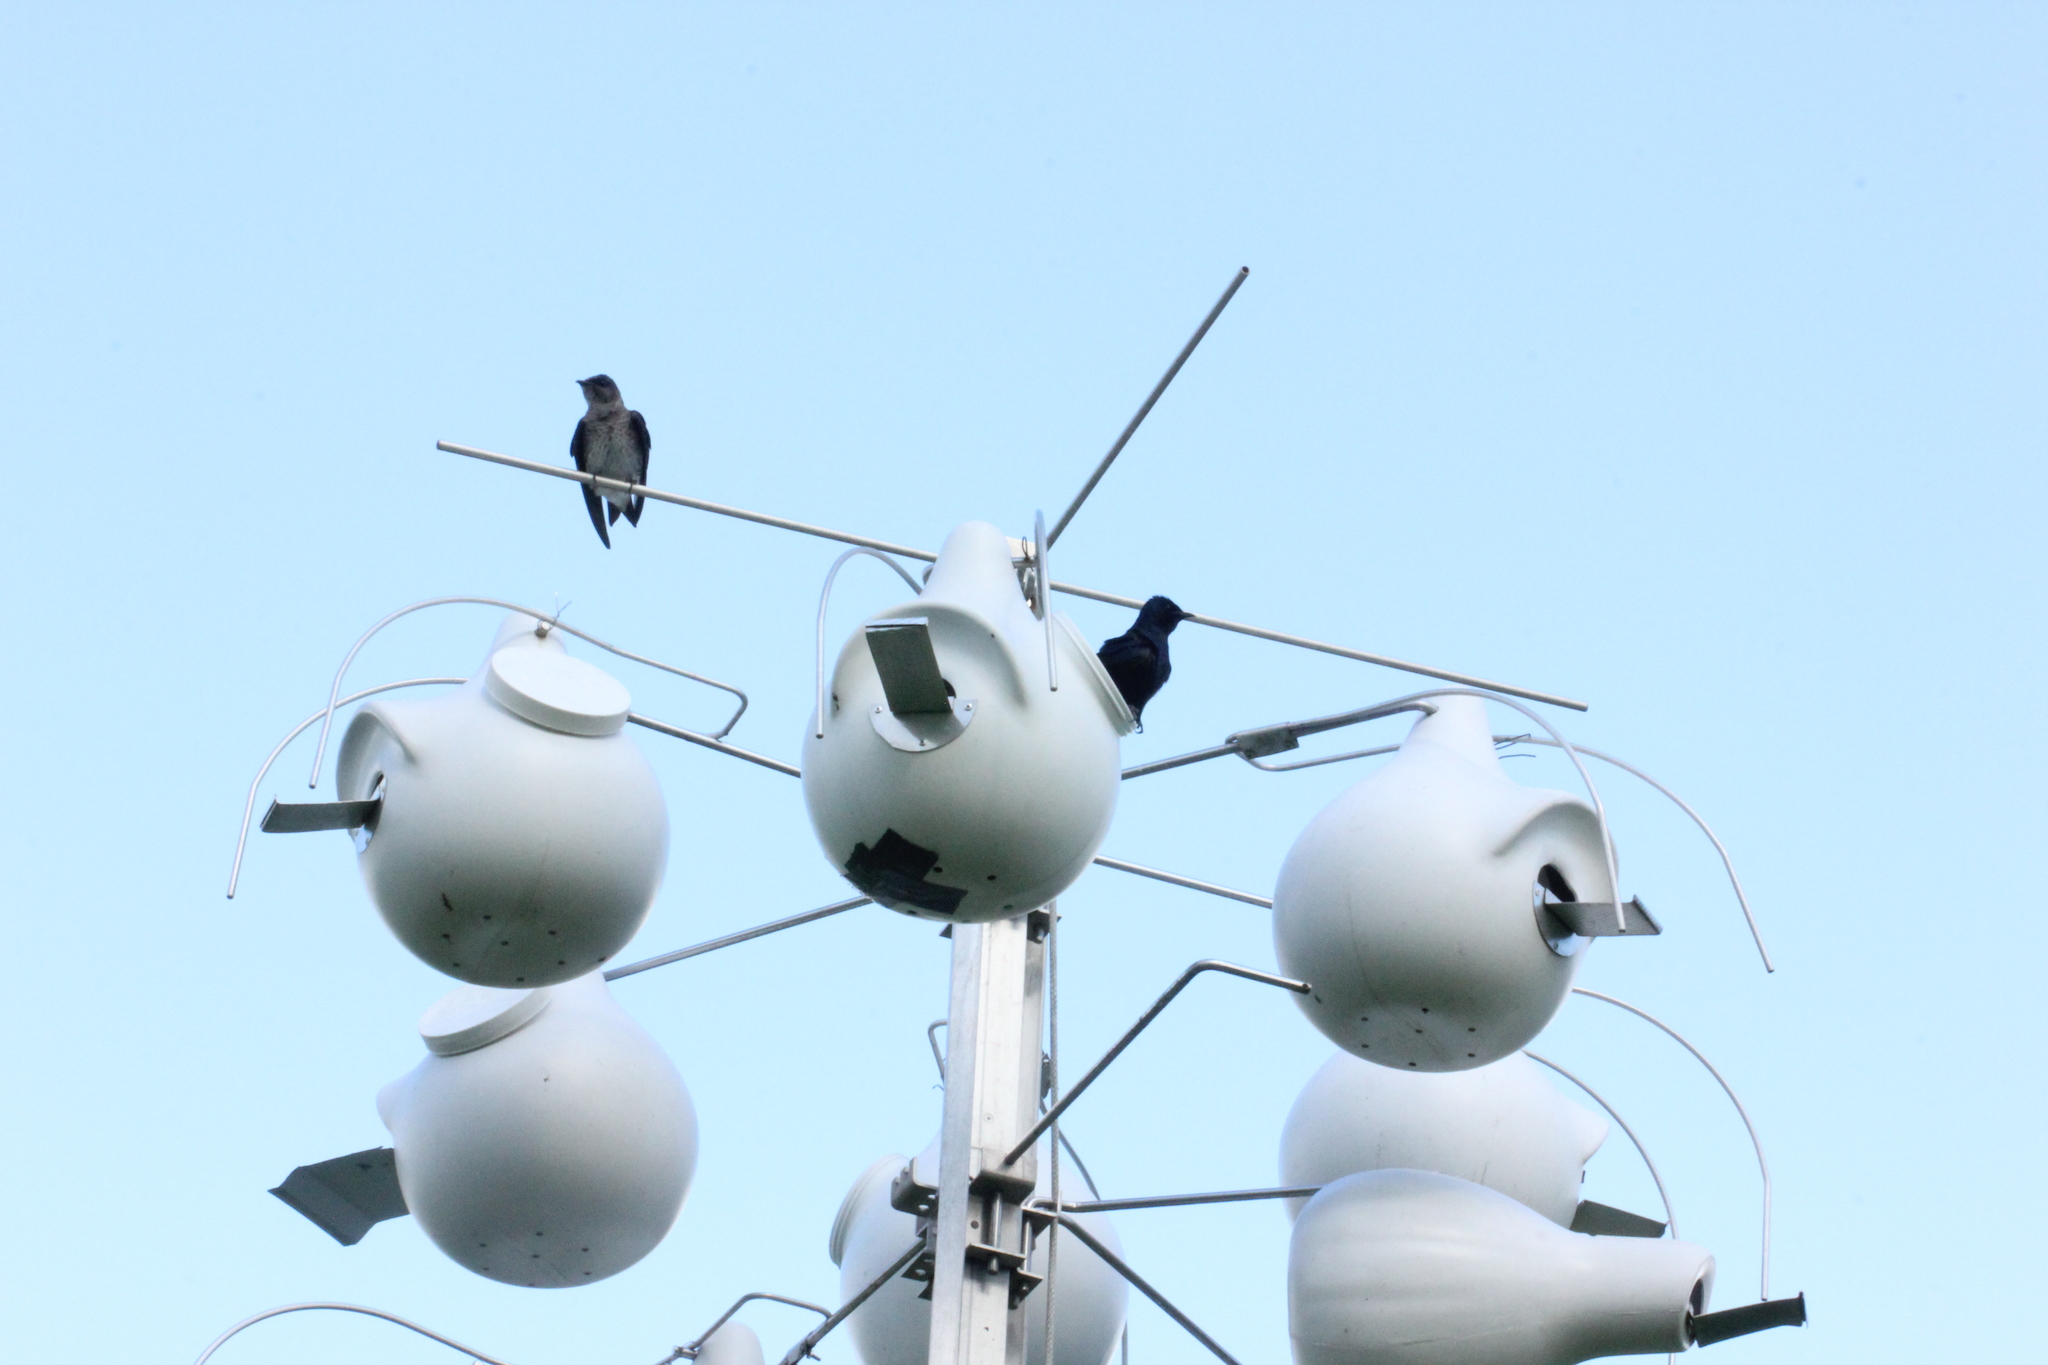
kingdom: Animalia
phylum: Chordata
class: Aves
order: Passeriformes
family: Hirundinidae
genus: Progne
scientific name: Progne subis
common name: Purple martin
